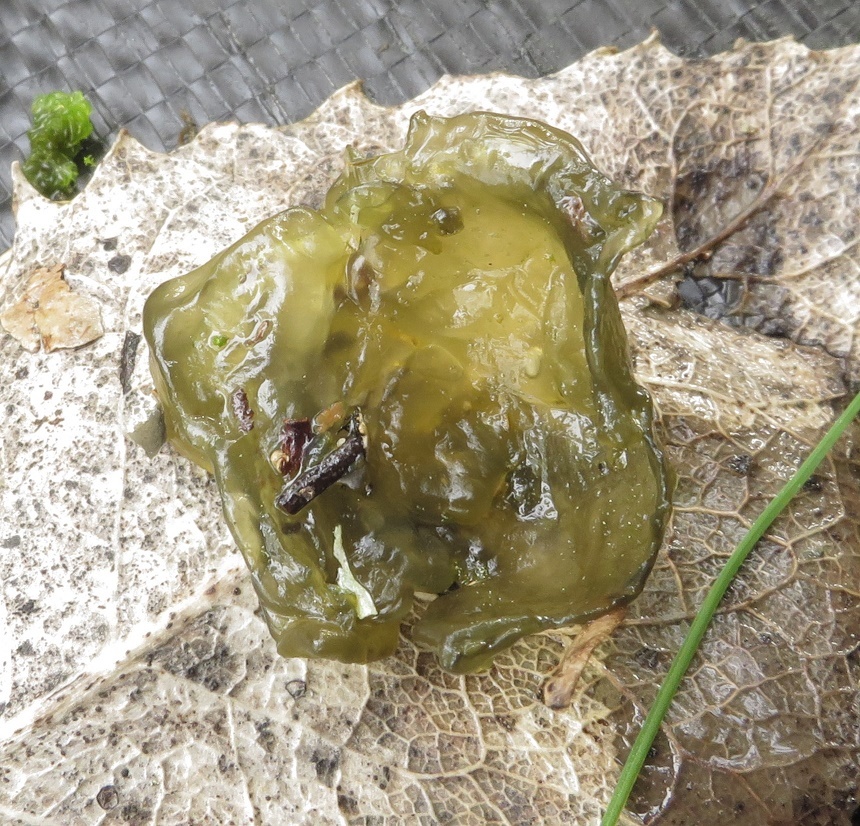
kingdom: Bacteria
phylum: Cyanobacteria
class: Cyanobacteriia
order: Cyanobacteriales
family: Nostocaceae
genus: Nostoc
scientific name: Nostoc commune
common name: Star jelly
